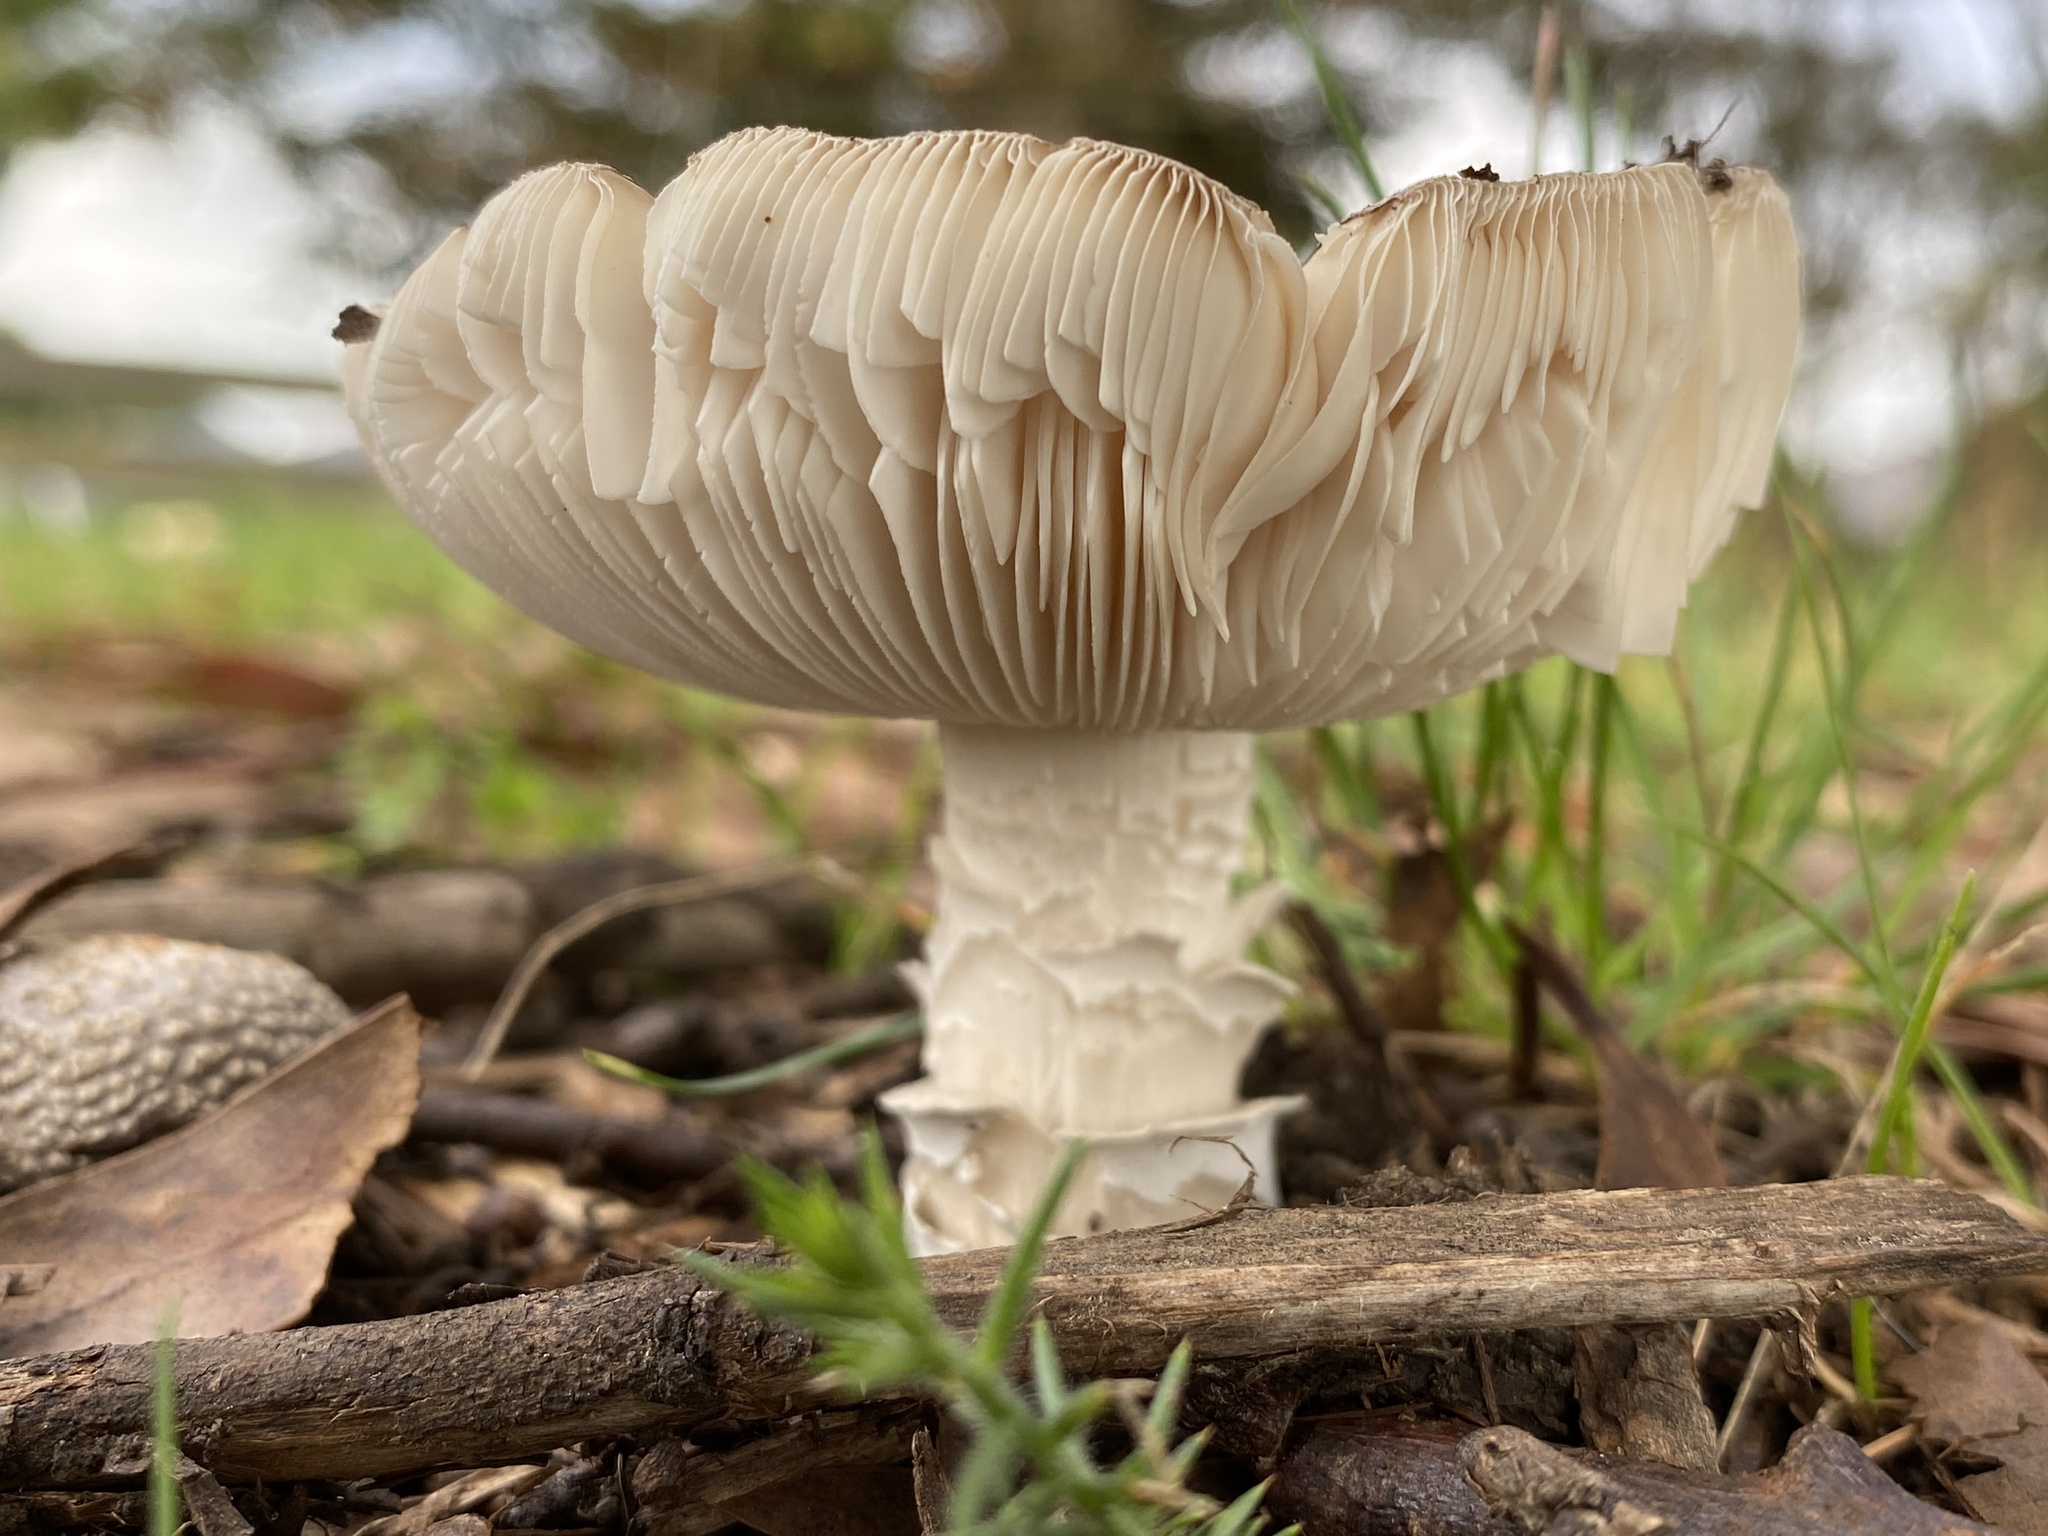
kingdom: Fungi
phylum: Basidiomycota
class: Agaricomycetes
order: Agaricales
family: Amanitaceae
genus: Amanita
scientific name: Amanita excelsa
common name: European false blusher
